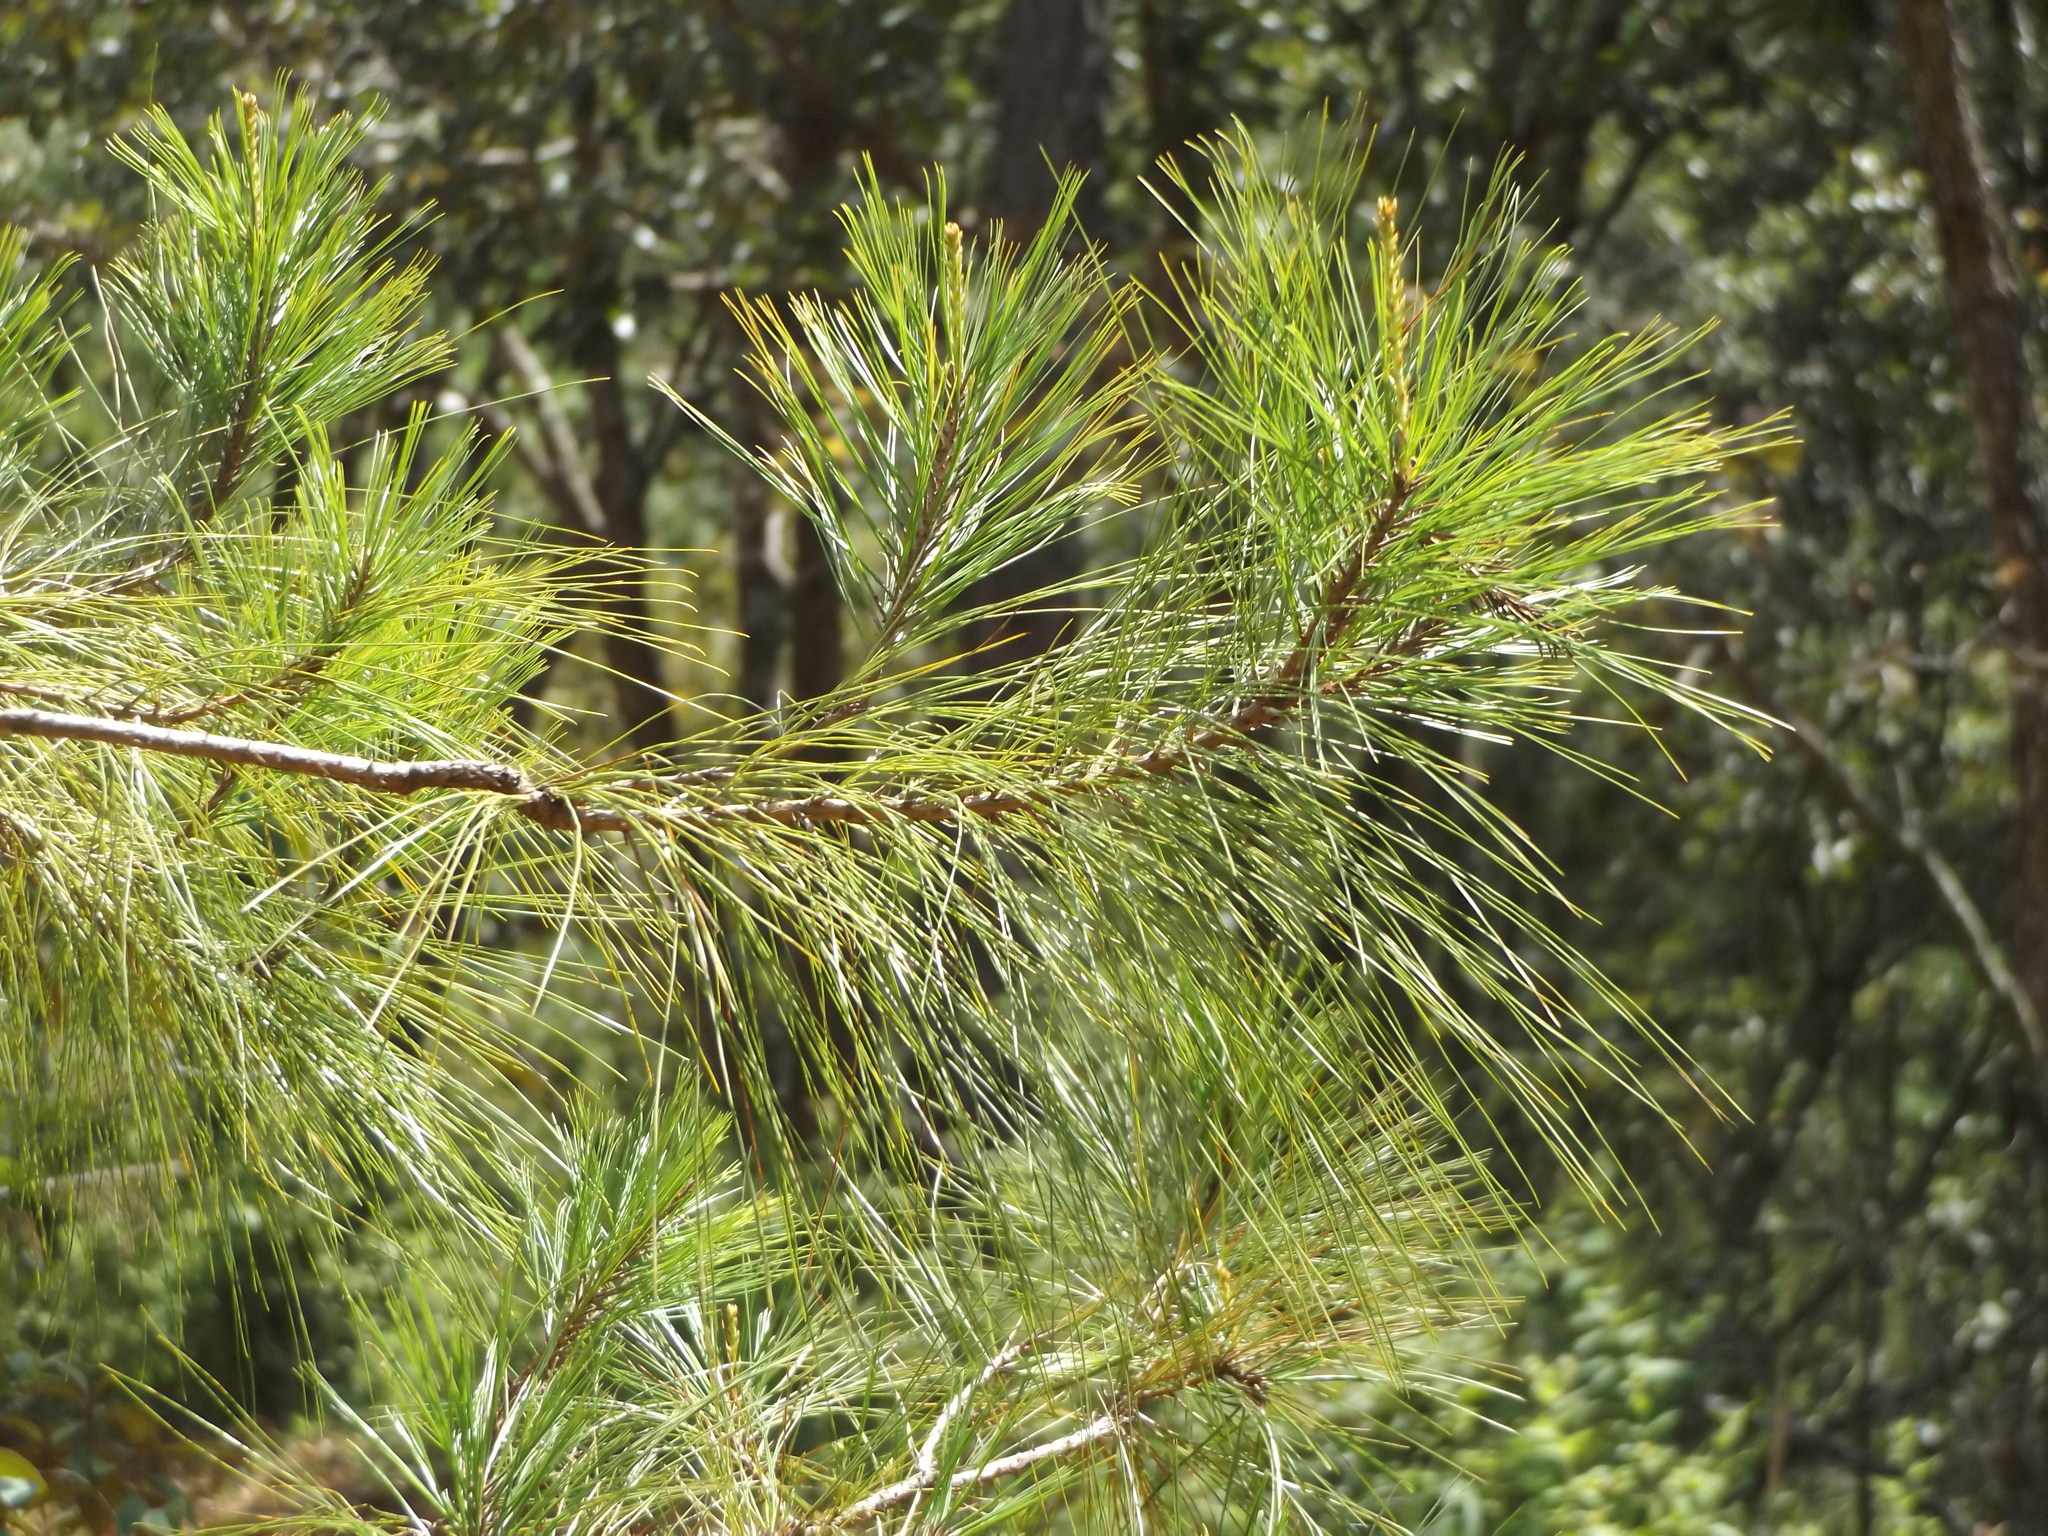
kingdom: Plantae
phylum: Tracheophyta
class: Pinopsida
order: Pinales
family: Pinaceae
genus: Pinus
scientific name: Pinus jaliscana
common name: Jalisco pine
